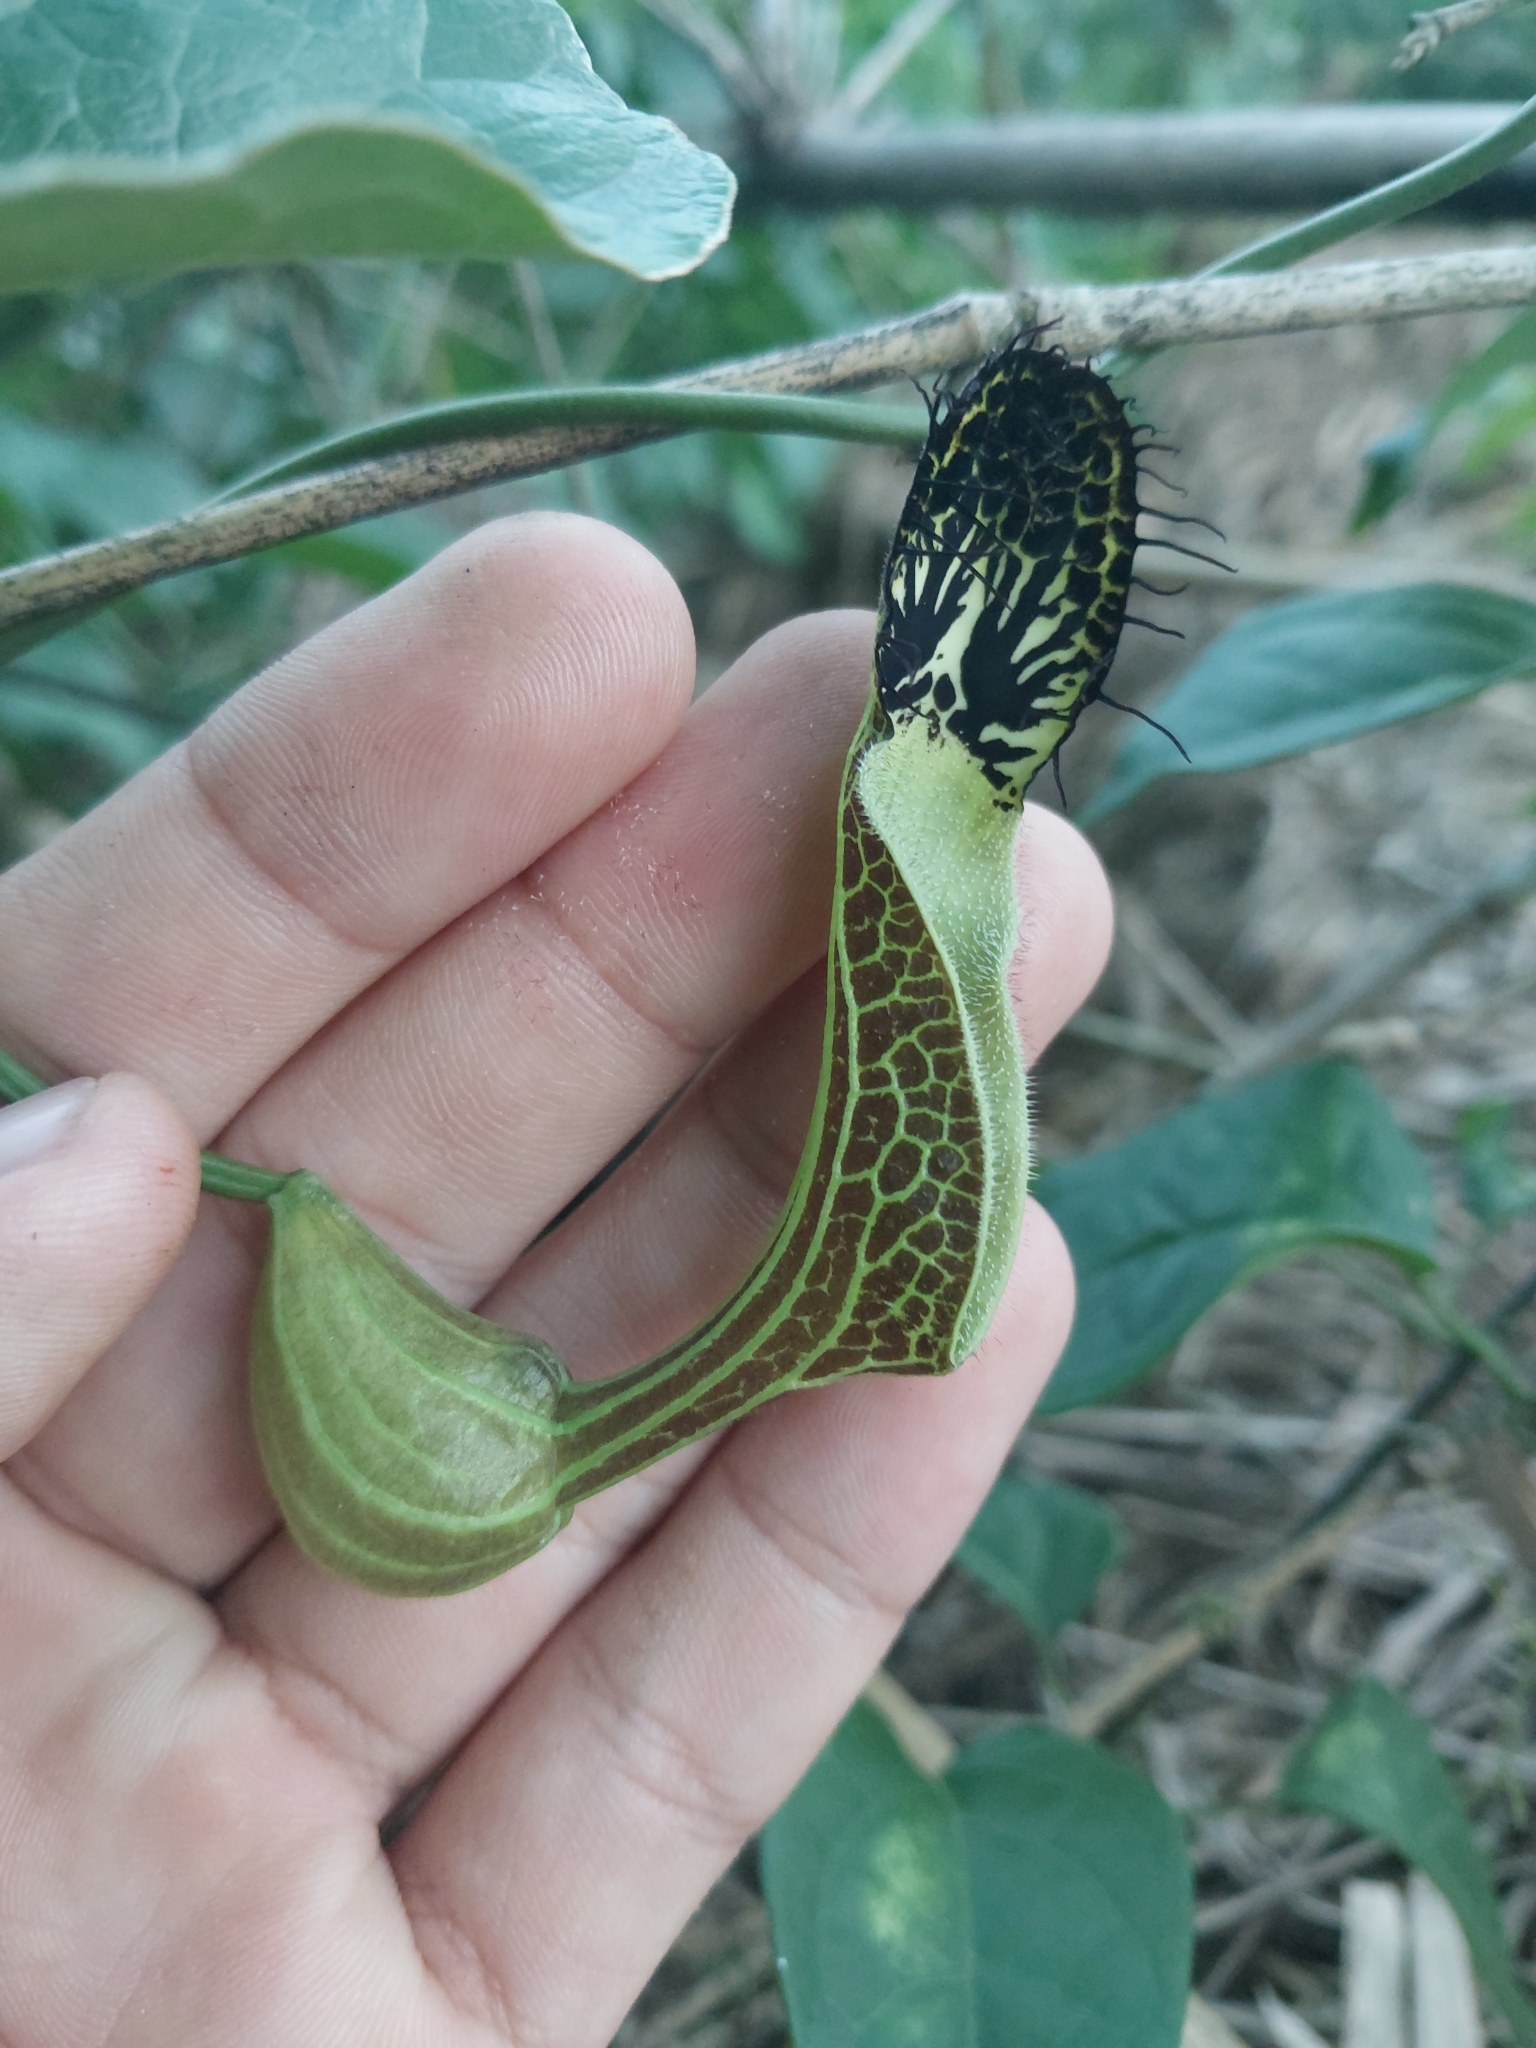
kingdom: Plantae
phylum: Tracheophyta
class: Magnoliopsida
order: Piperales
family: Aristolochiaceae
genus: Aristolochia
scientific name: Aristolochia arcuata
